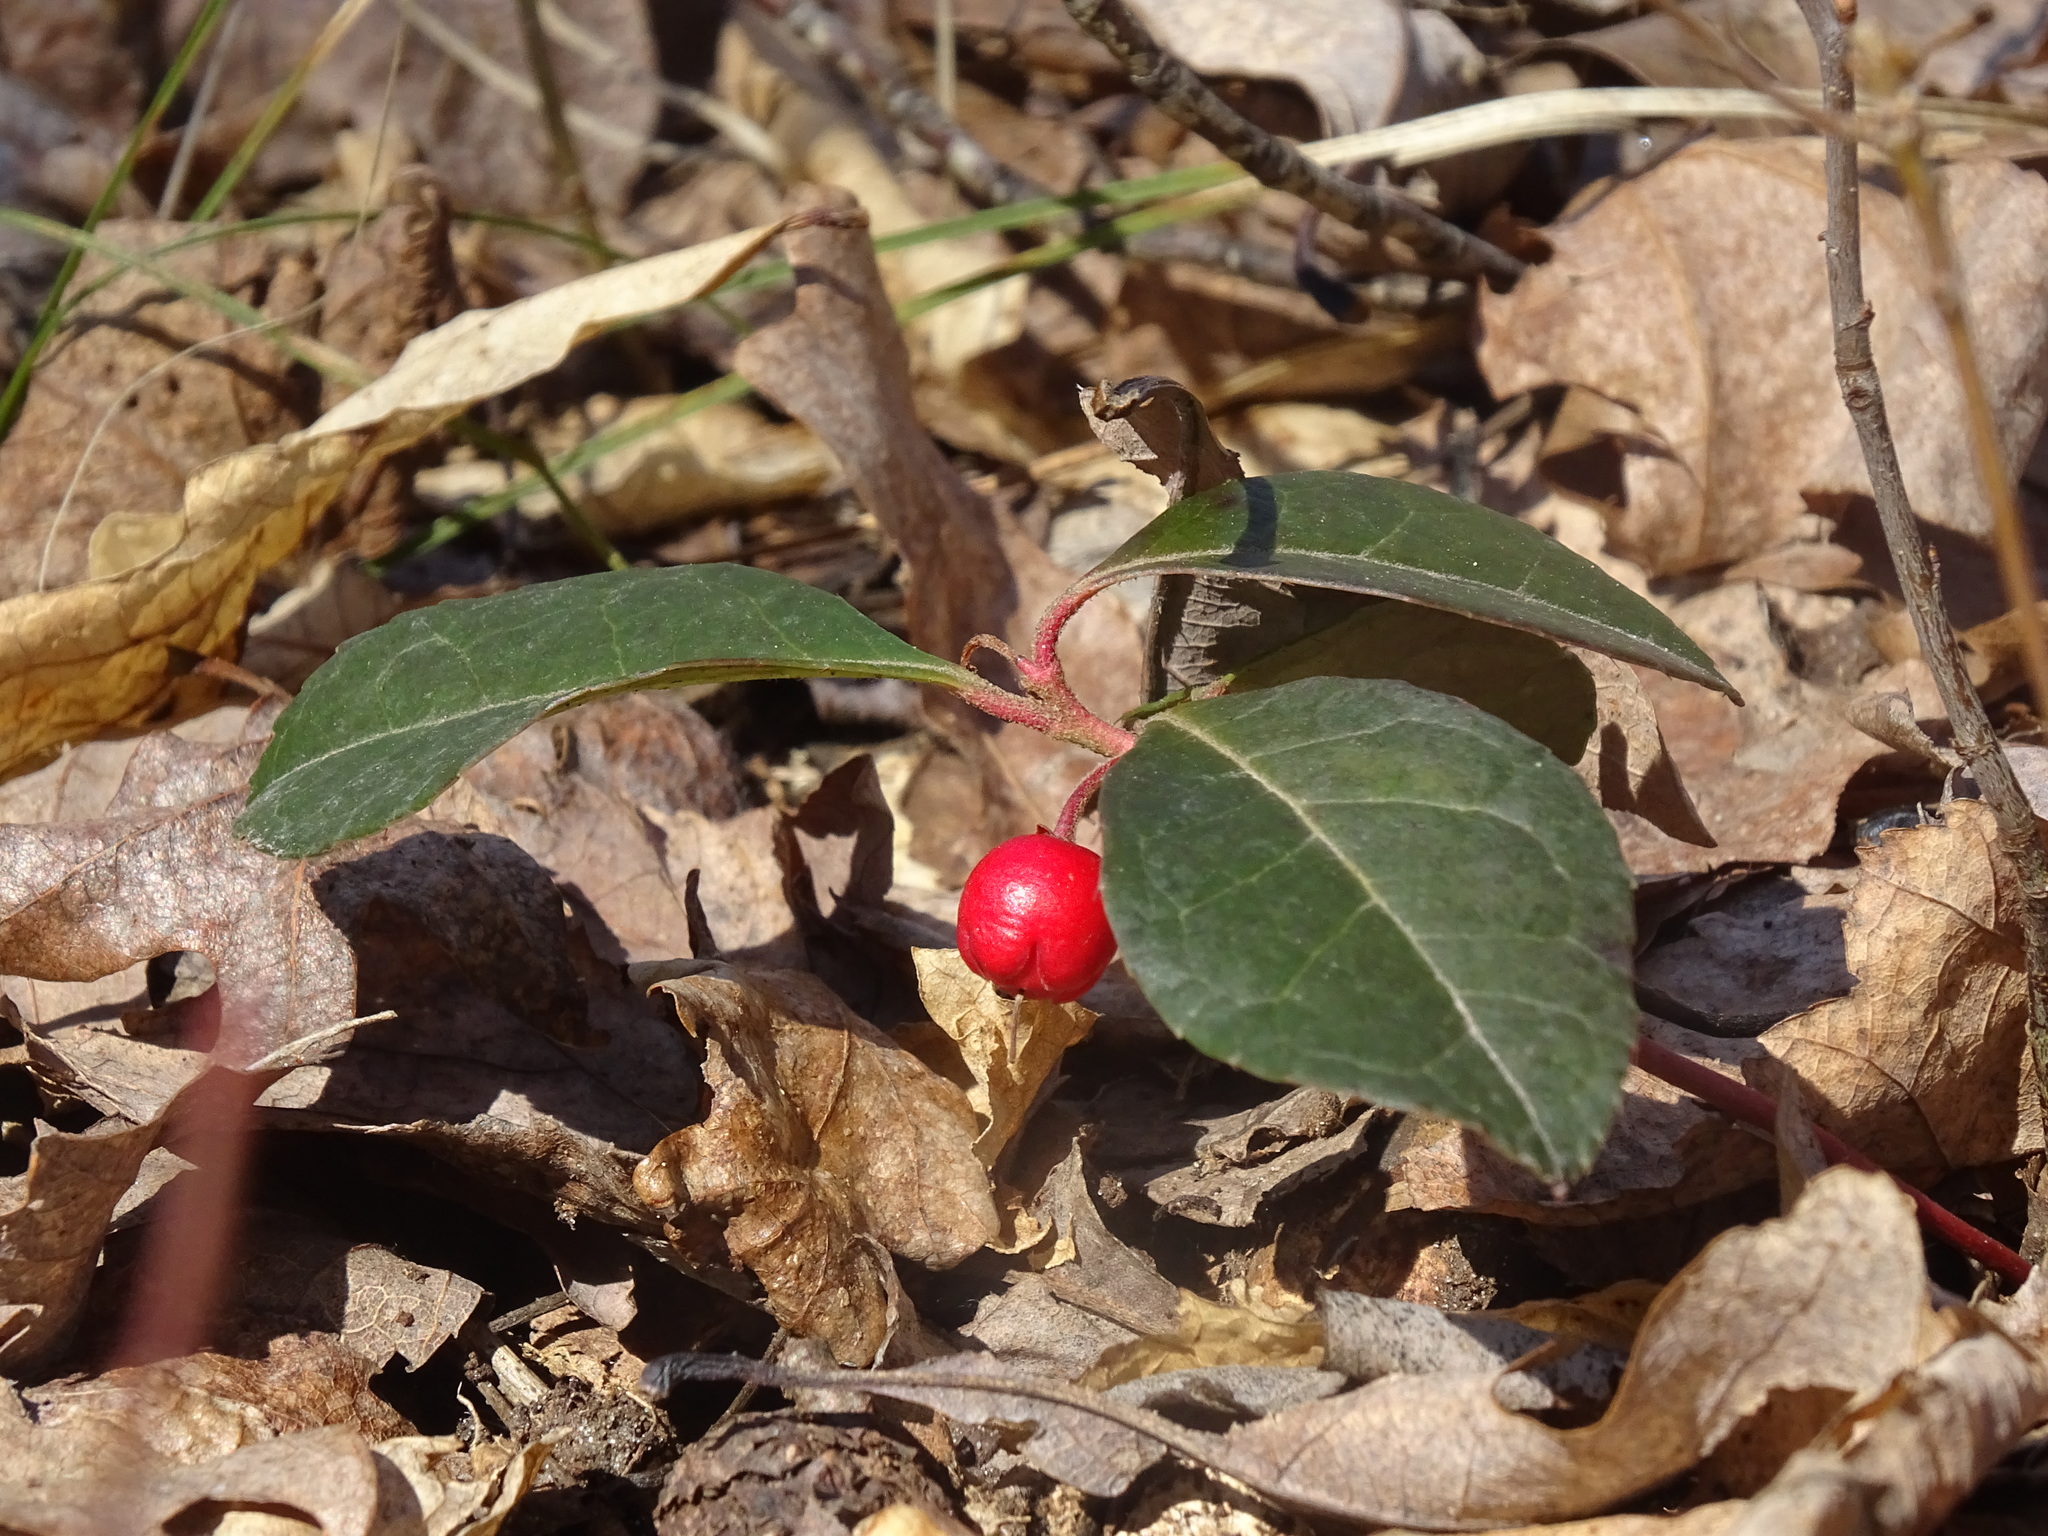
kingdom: Plantae
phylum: Tracheophyta
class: Magnoliopsida
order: Ericales
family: Ericaceae
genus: Gaultheria
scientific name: Gaultheria procumbens
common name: Checkerberry
